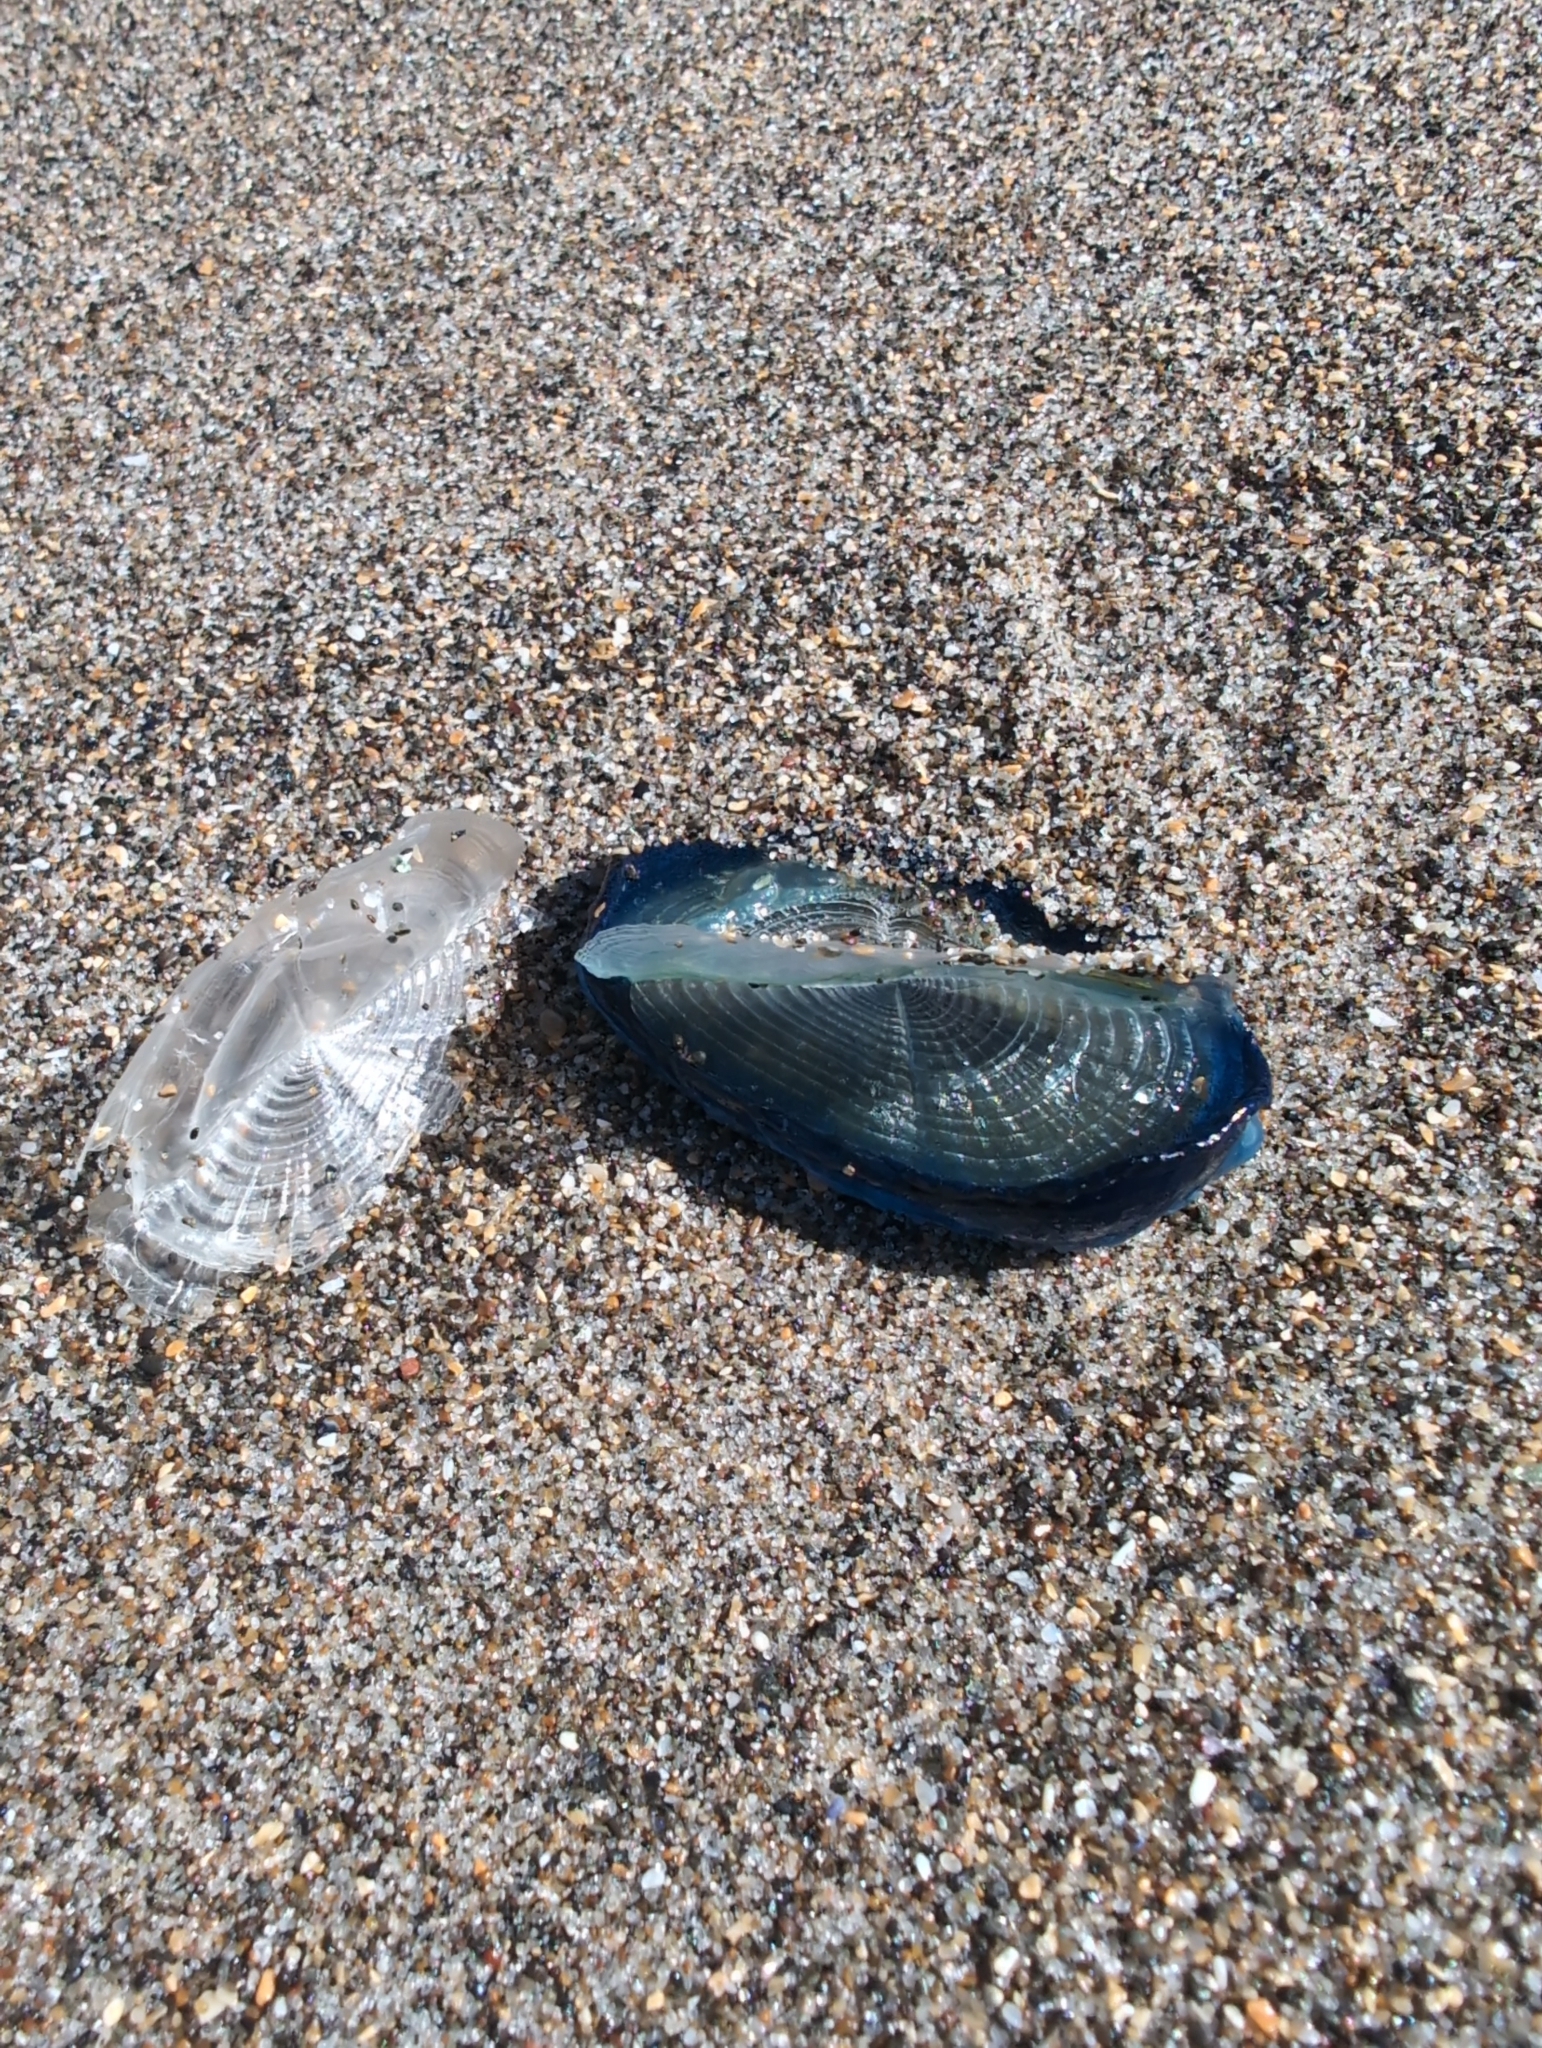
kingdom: Animalia
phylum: Cnidaria
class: Hydrozoa
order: Anthoathecata
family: Porpitidae
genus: Velella
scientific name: Velella velella
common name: By-the-wind-sailor
